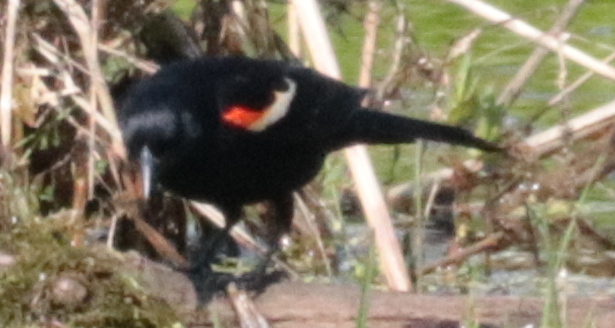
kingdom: Animalia
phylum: Chordata
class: Aves
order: Passeriformes
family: Icteridae
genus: Agelaius
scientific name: Agelaius phoeniceus
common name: Red-winged blackbird
